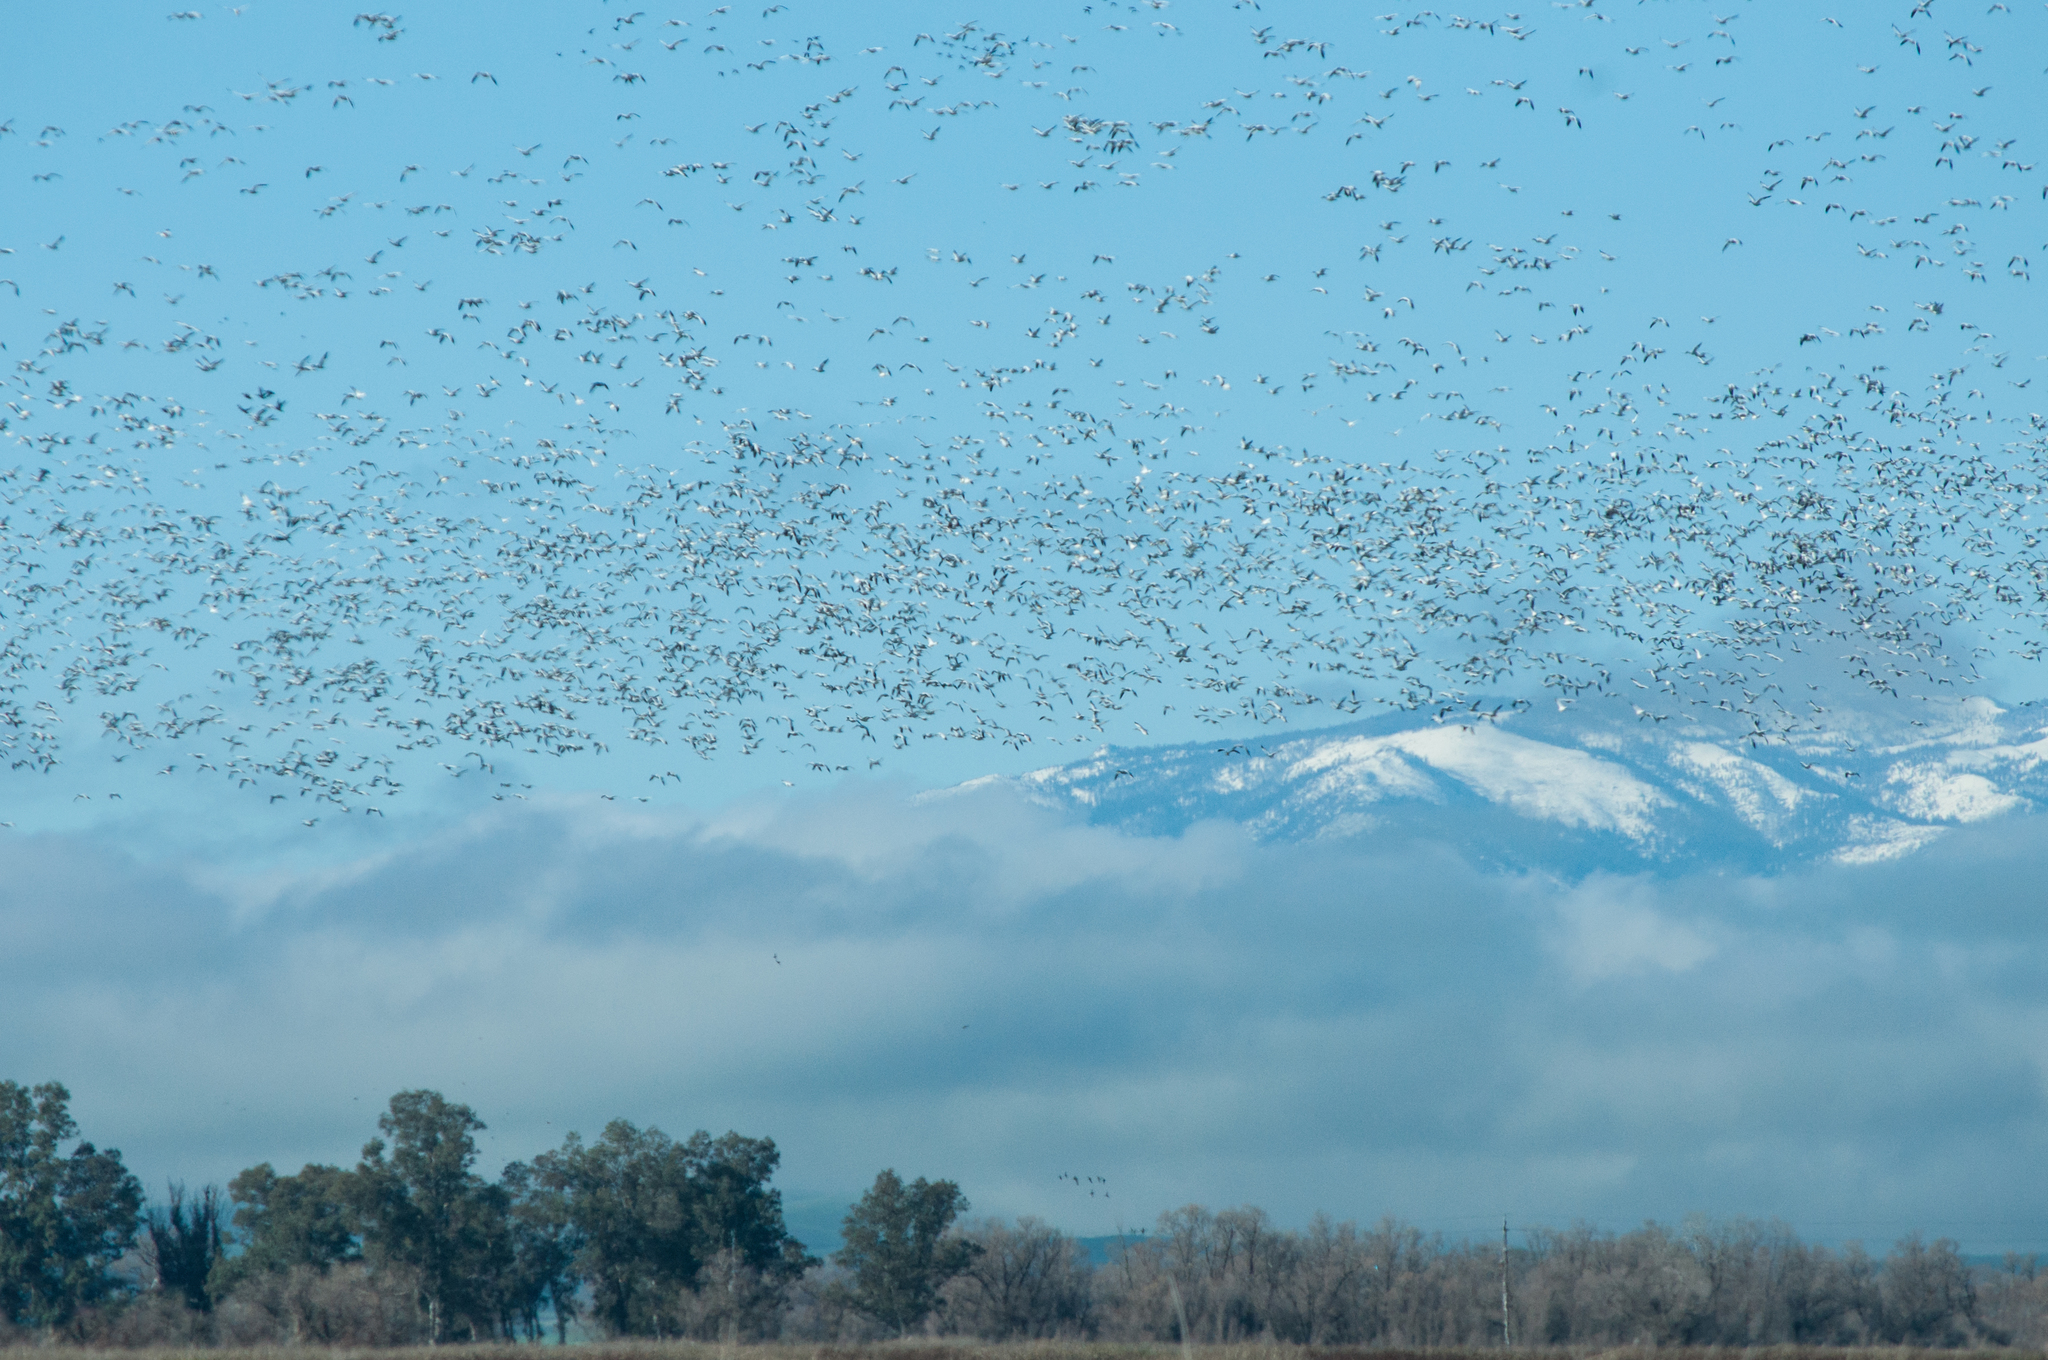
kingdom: Animalia
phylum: Chordata
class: Aves
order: Anseriformes
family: Anatidae
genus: Anser
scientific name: Anser caerulescens
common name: Snow goose
